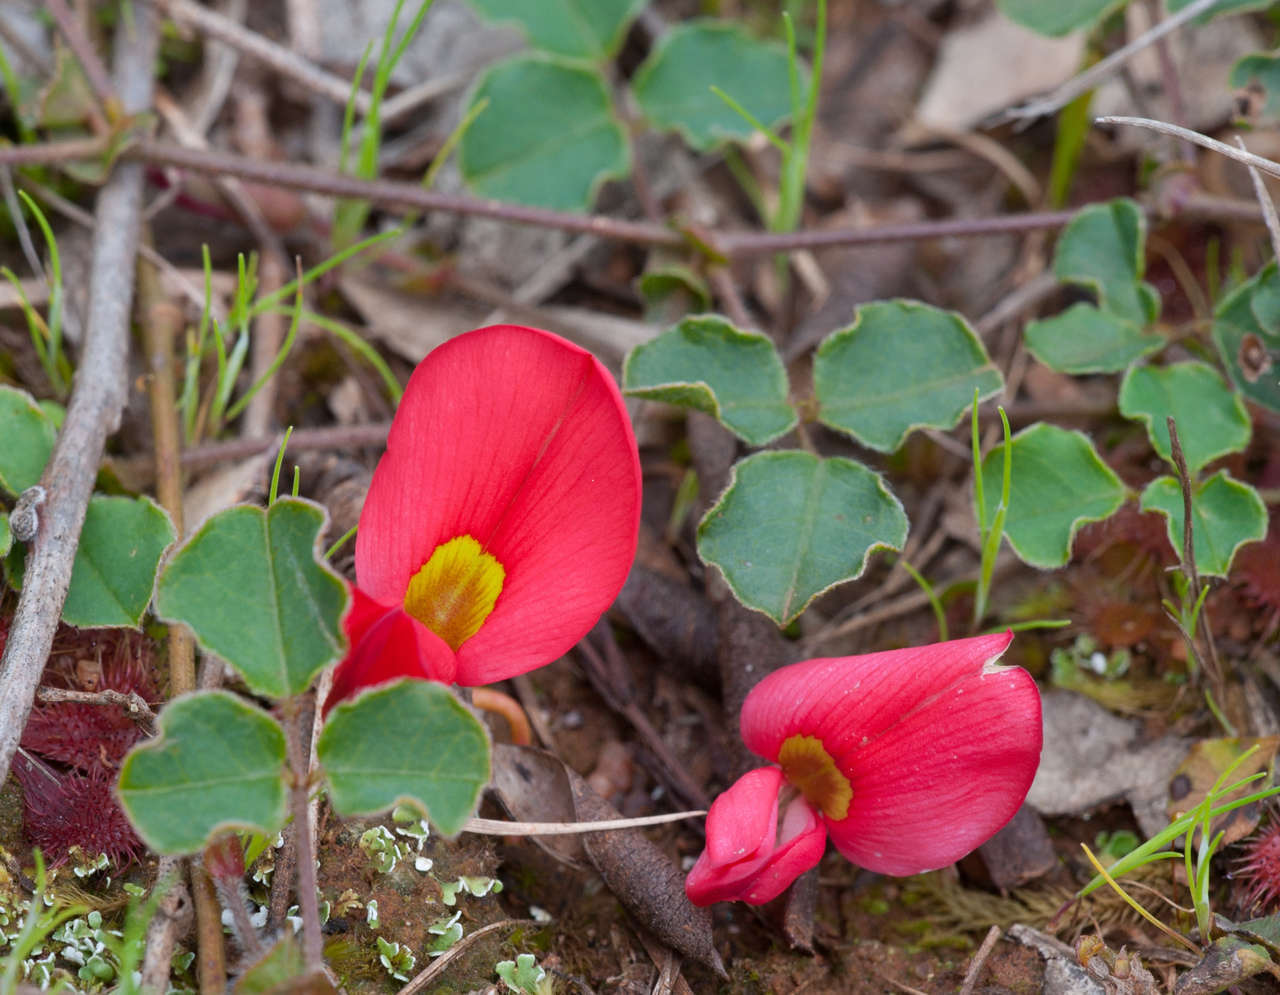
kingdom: Plantae
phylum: Tracheophyta
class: Magnoliopsida
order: Fabales
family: Fabaceae
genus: Kennedia
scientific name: Kennedia prostrata
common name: Running-postman
